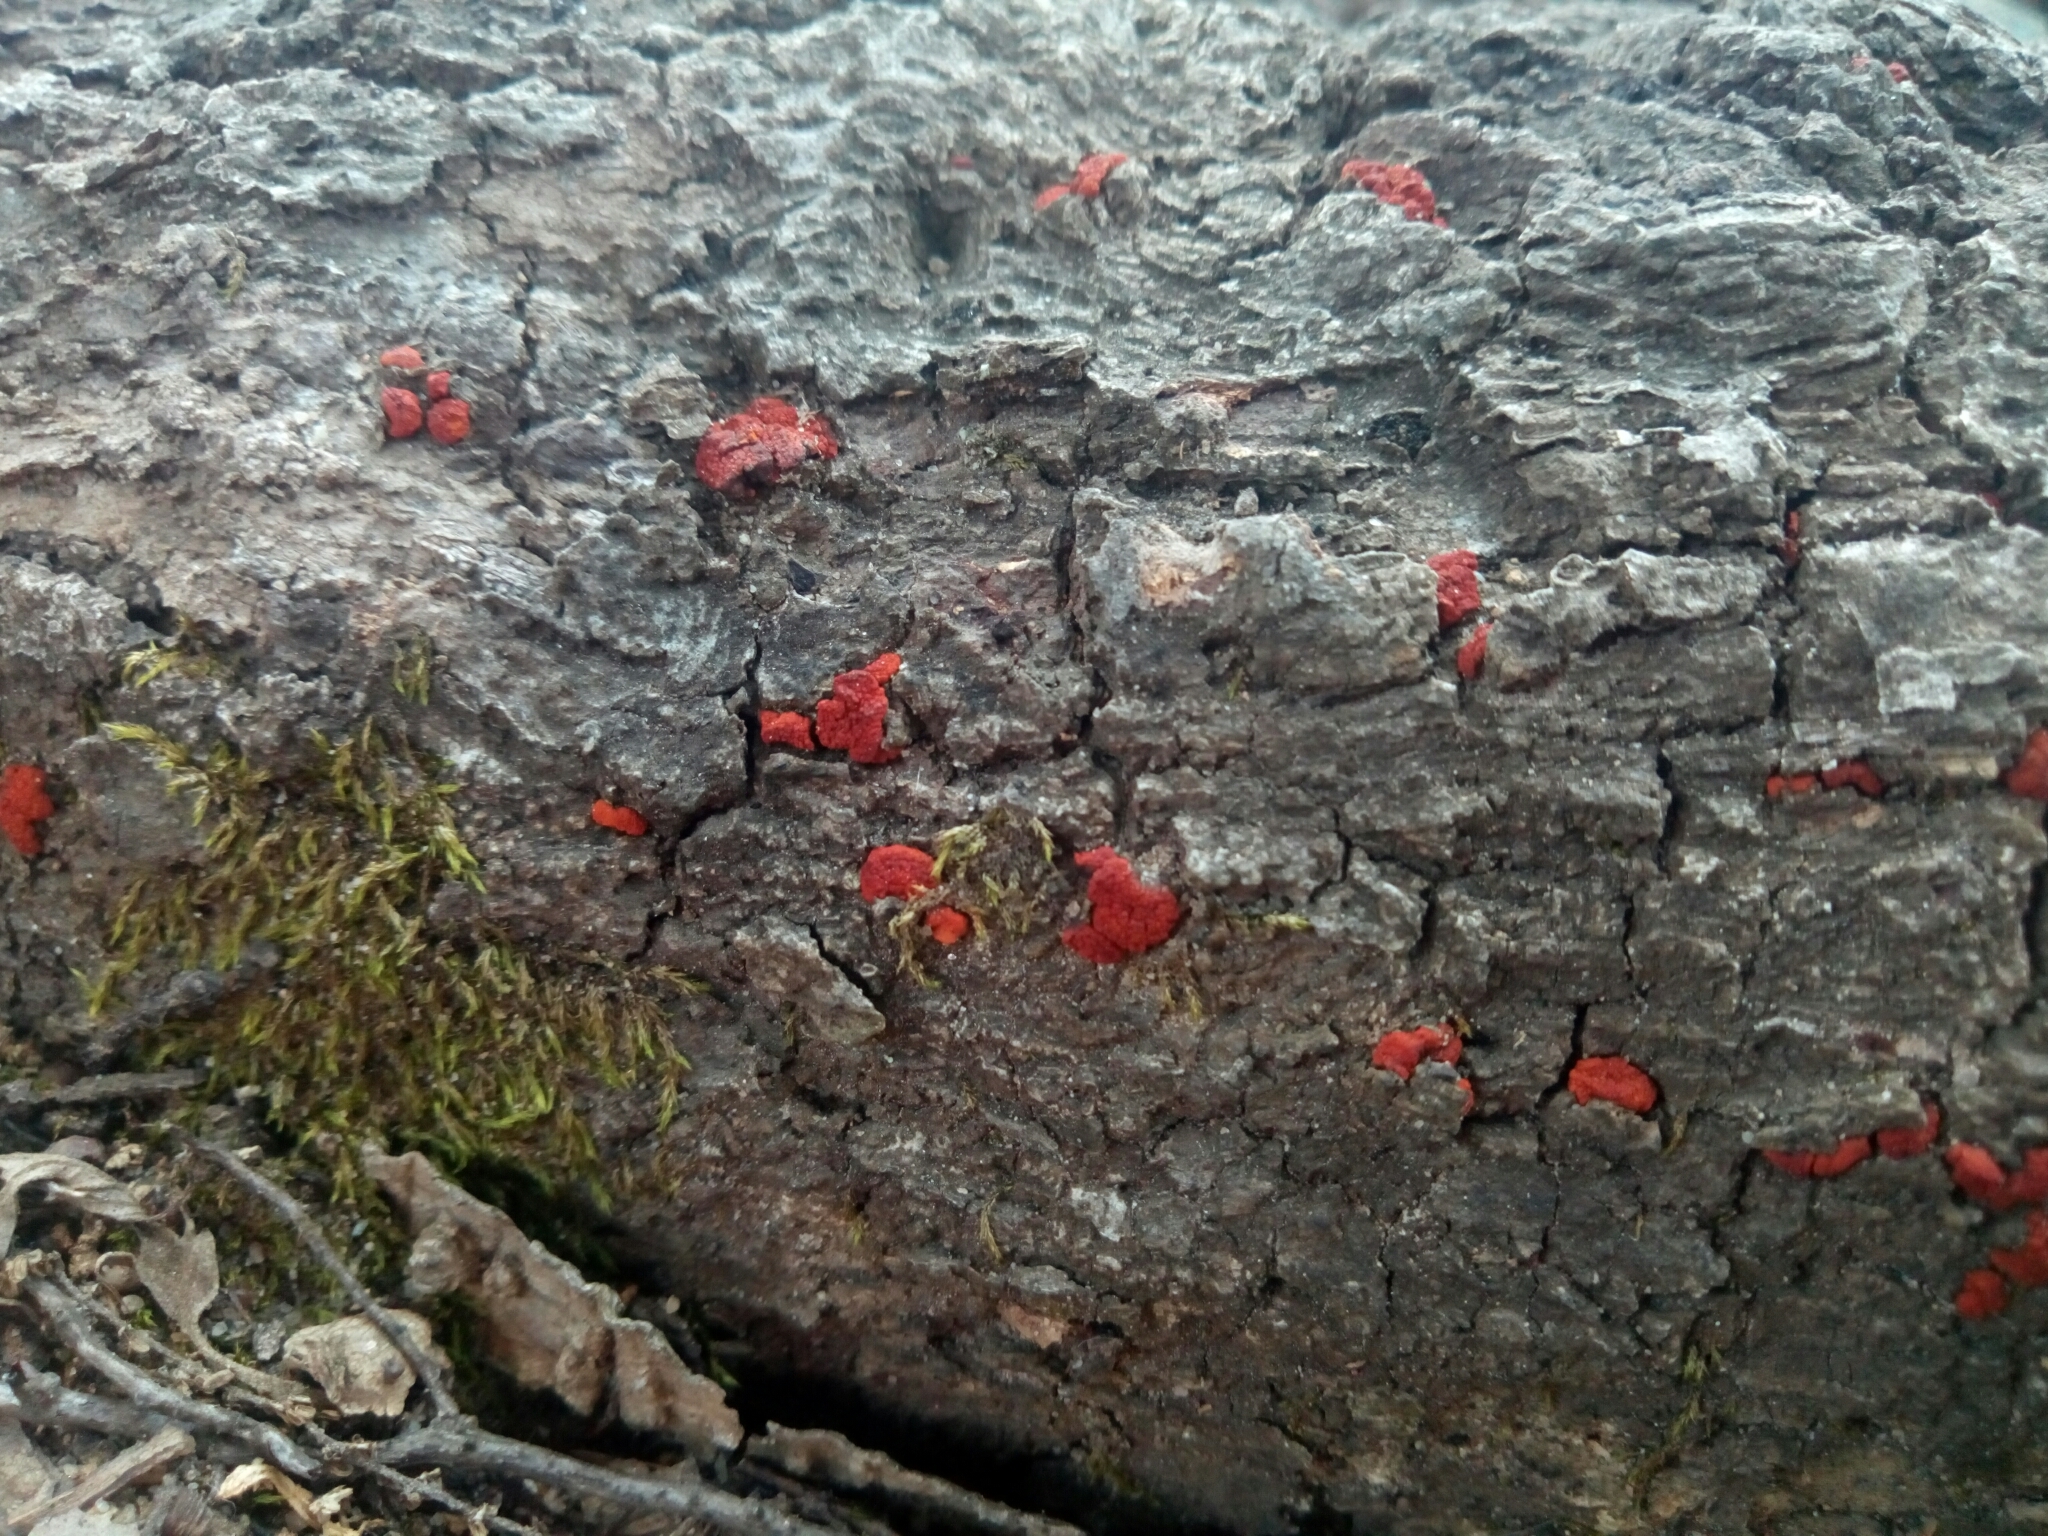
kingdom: Fungi
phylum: Ascomycota
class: Sordariomycetes
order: Diaporthales
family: Cryphonectriaceae
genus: Amphilogia
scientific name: Amphilogia gyrosa
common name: Orange hobnail canker
